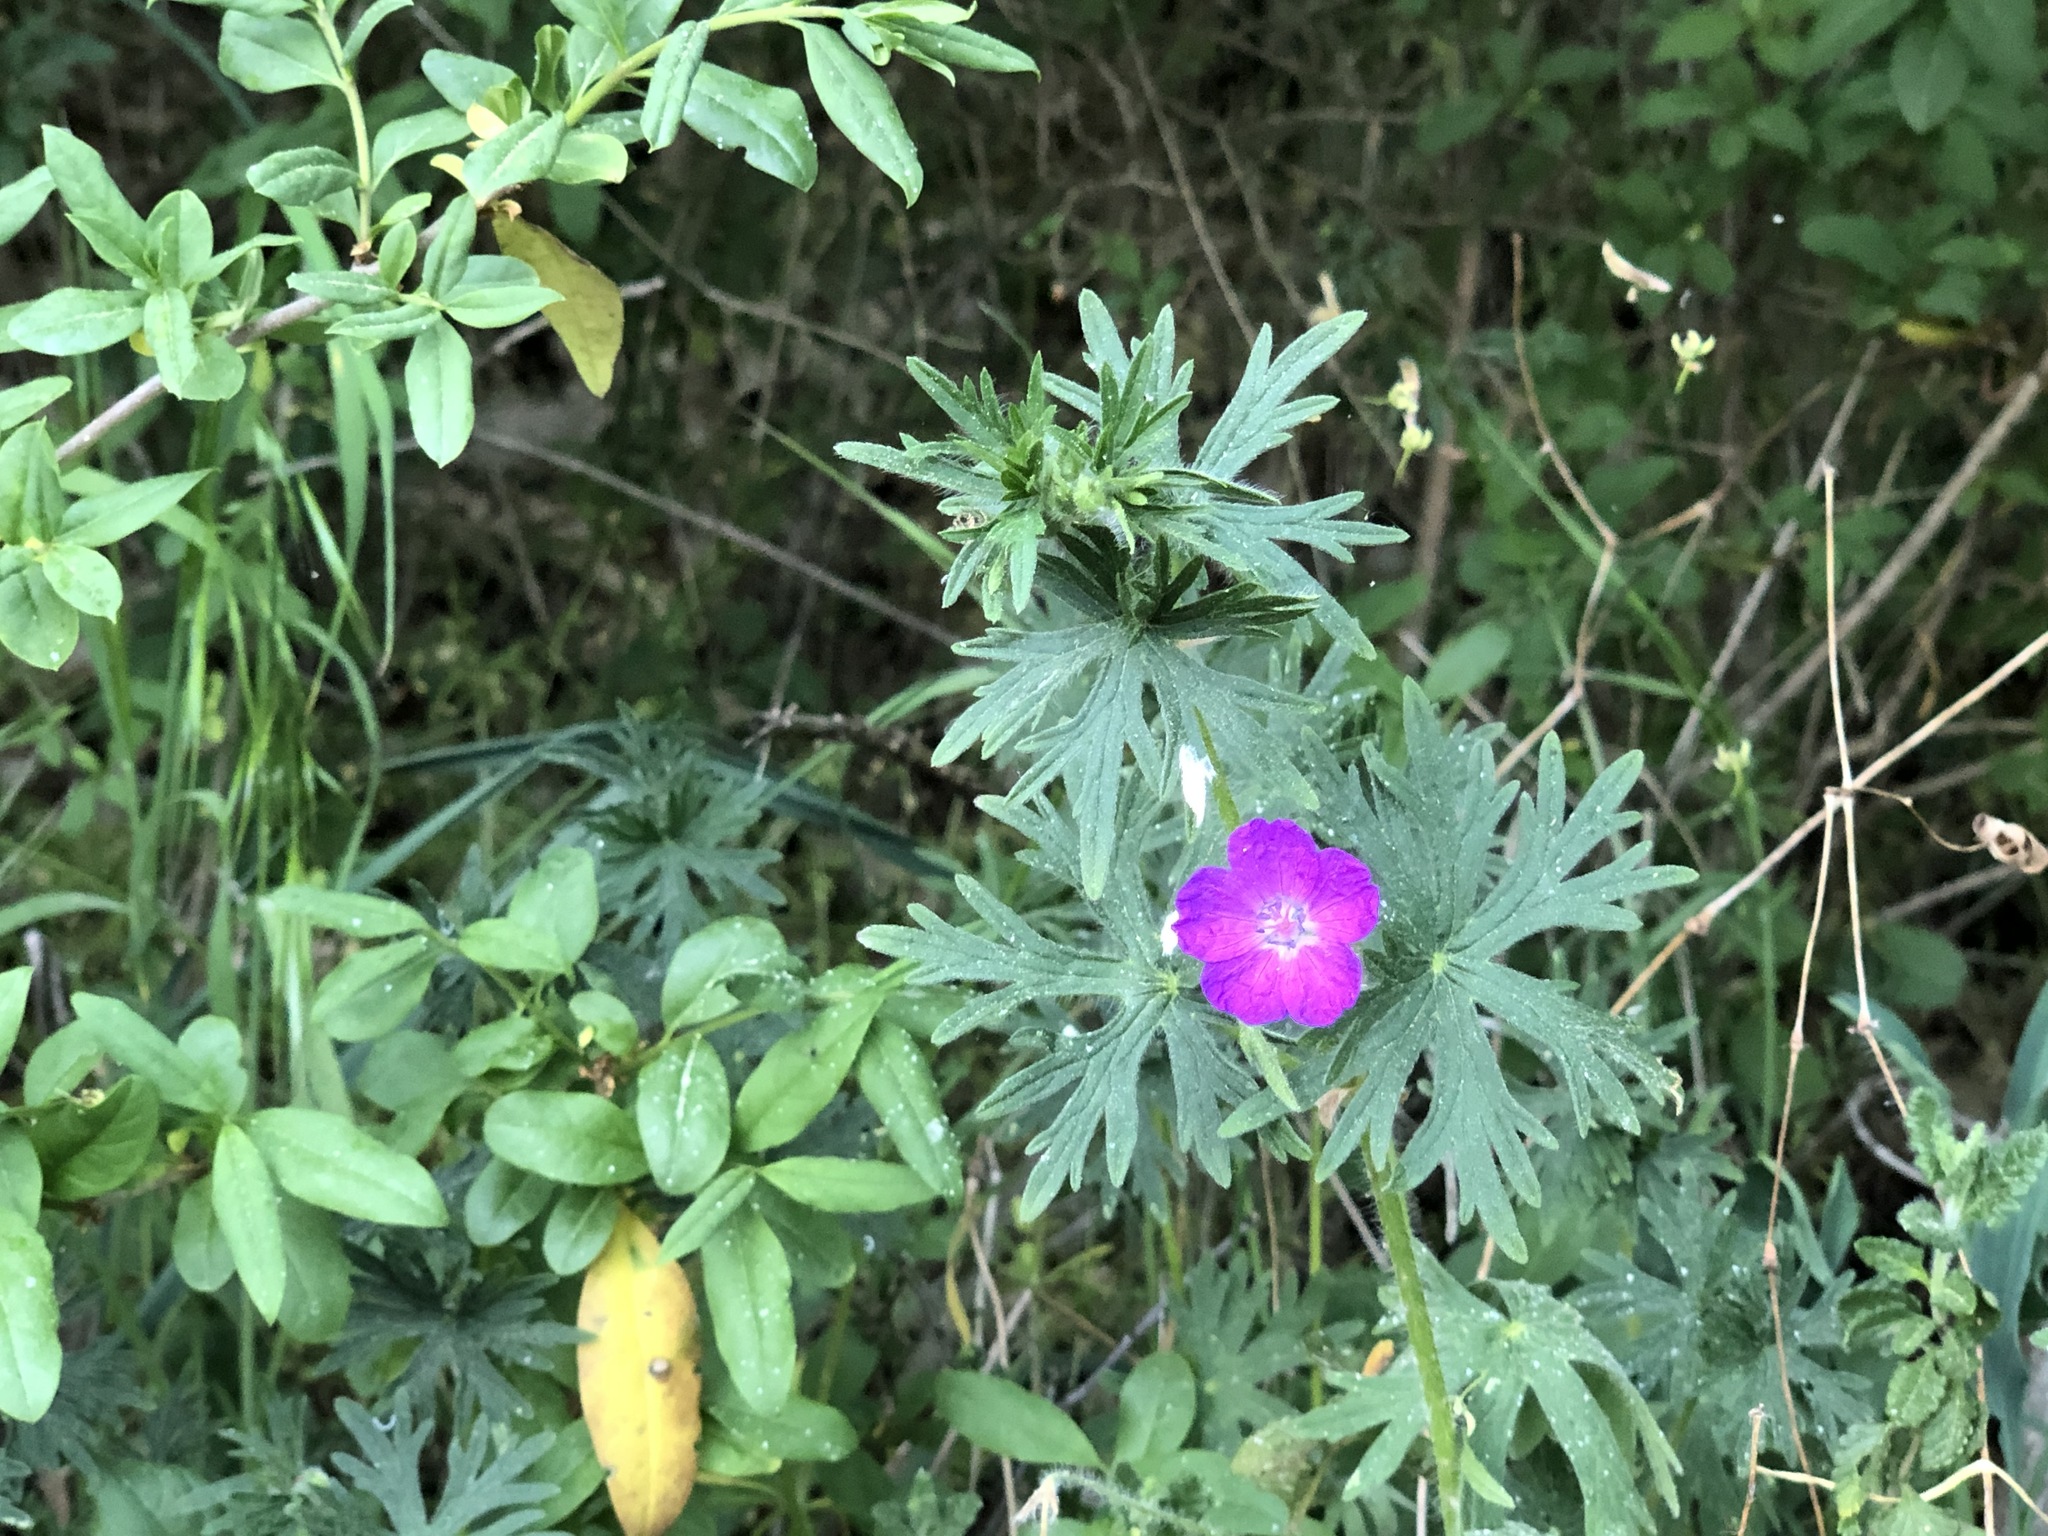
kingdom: Plantae
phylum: Tracheophyta
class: Magnoliopsida
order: Geraniales
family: Geraniaceae
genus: Geranium
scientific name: Geranium sanguineum
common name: Bloody crane's-bill
